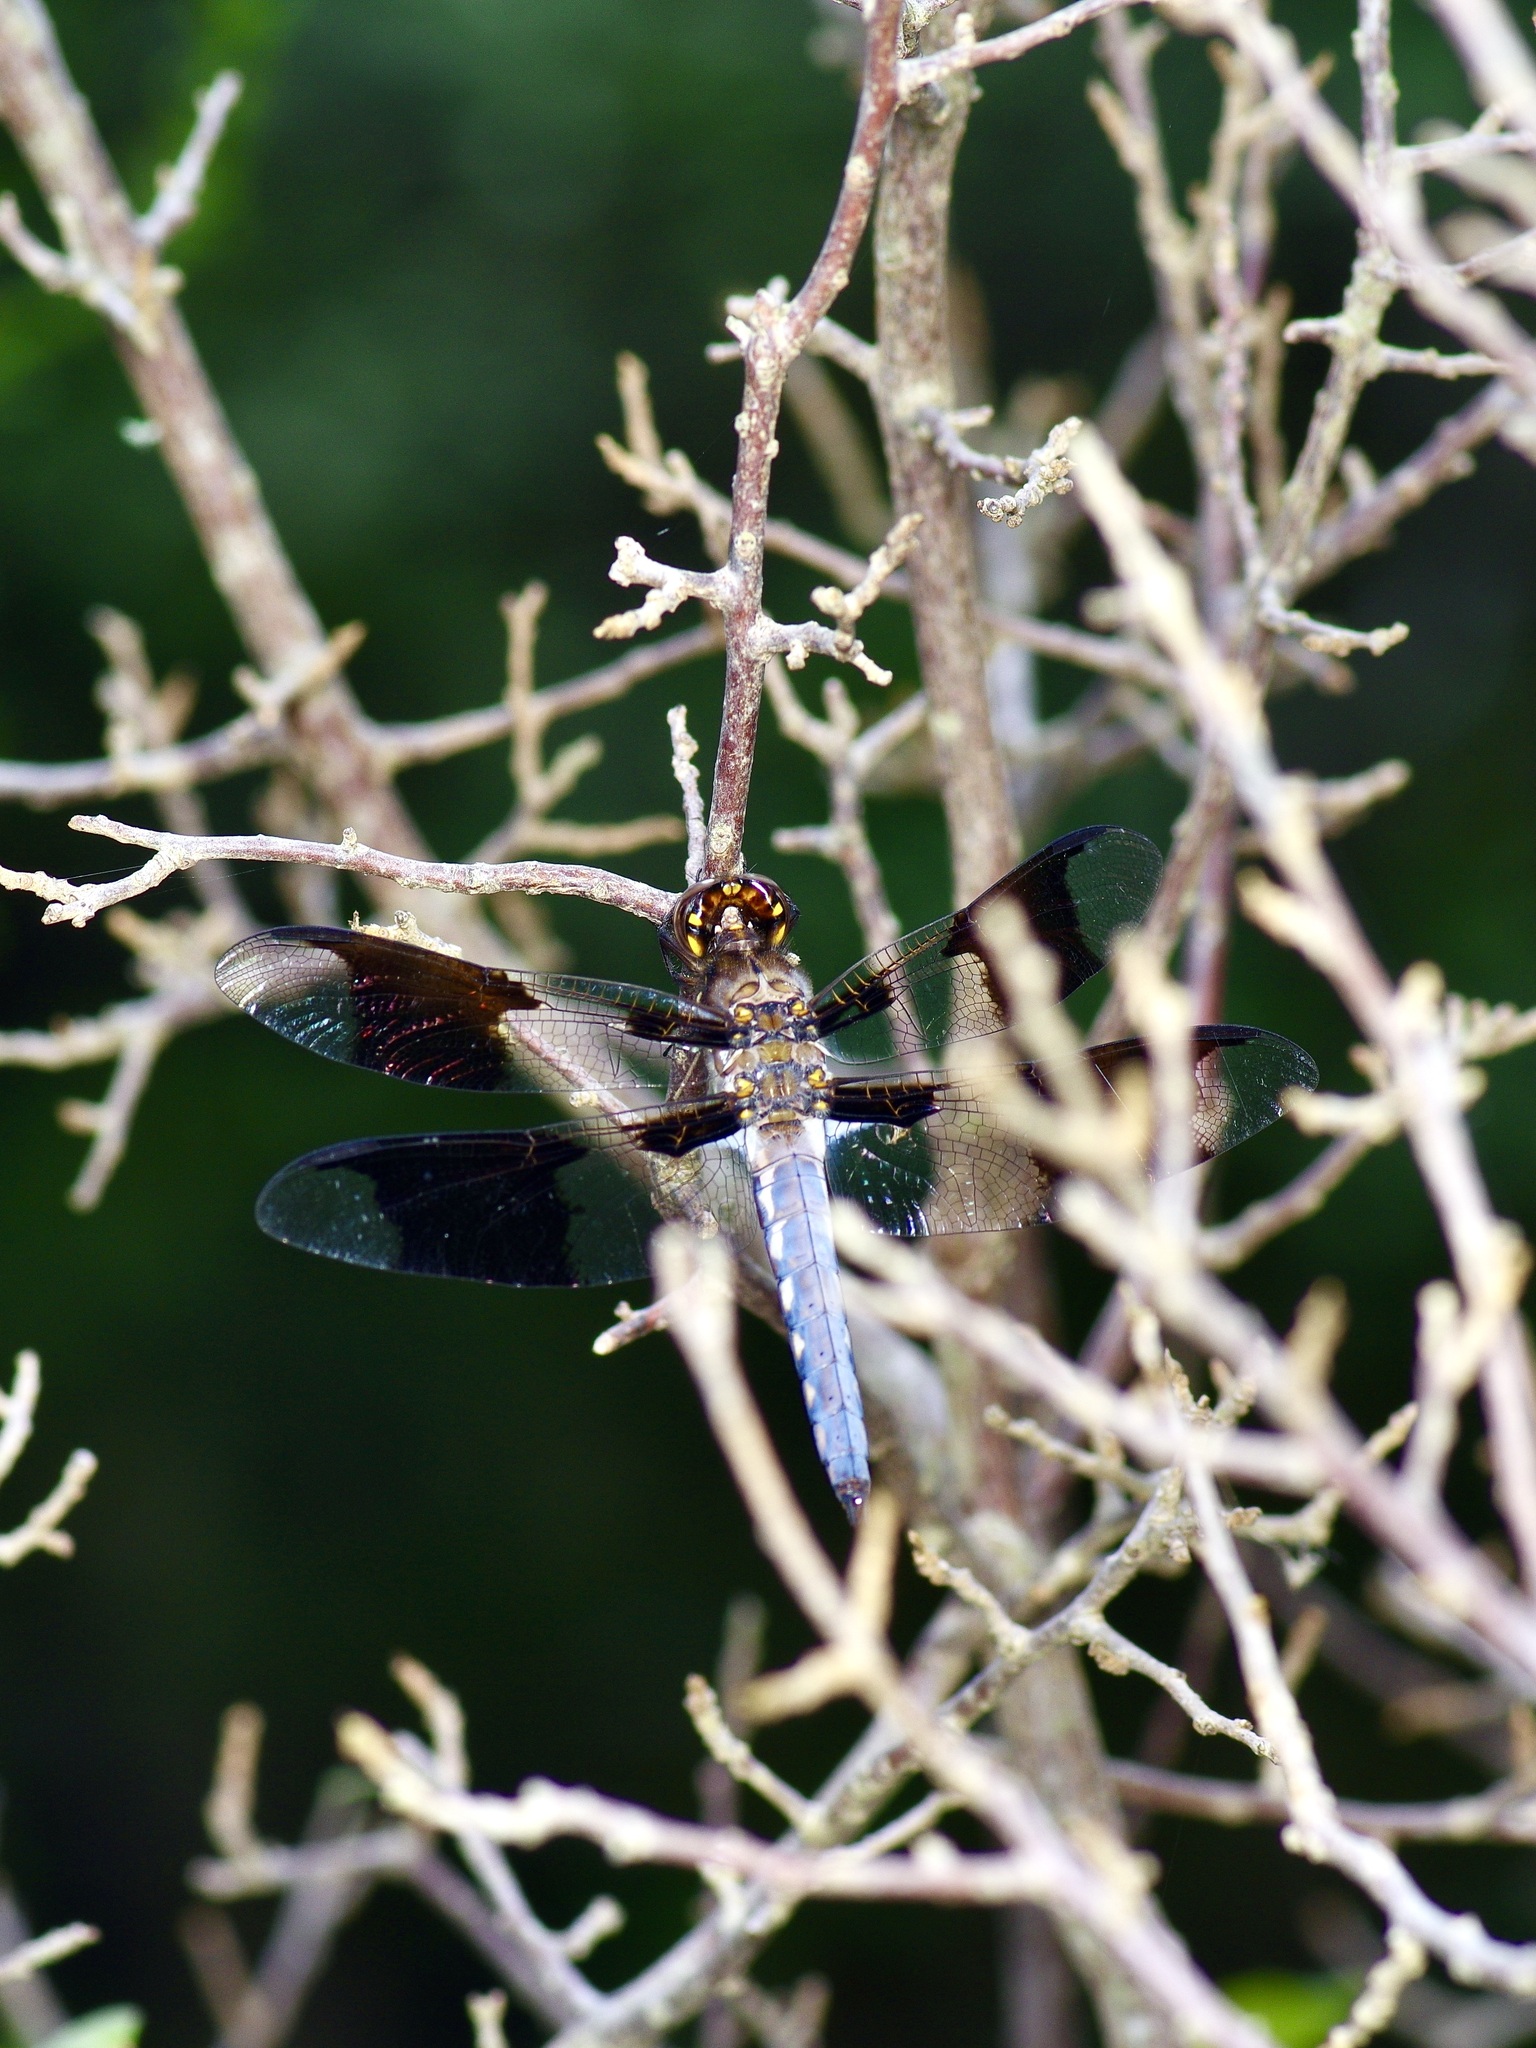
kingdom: Animalia
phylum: Arthropoda
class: Insecta
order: Odonata
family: Libellulidae
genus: Plathemis
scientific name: Plathemis lydia
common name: Common whitetail
